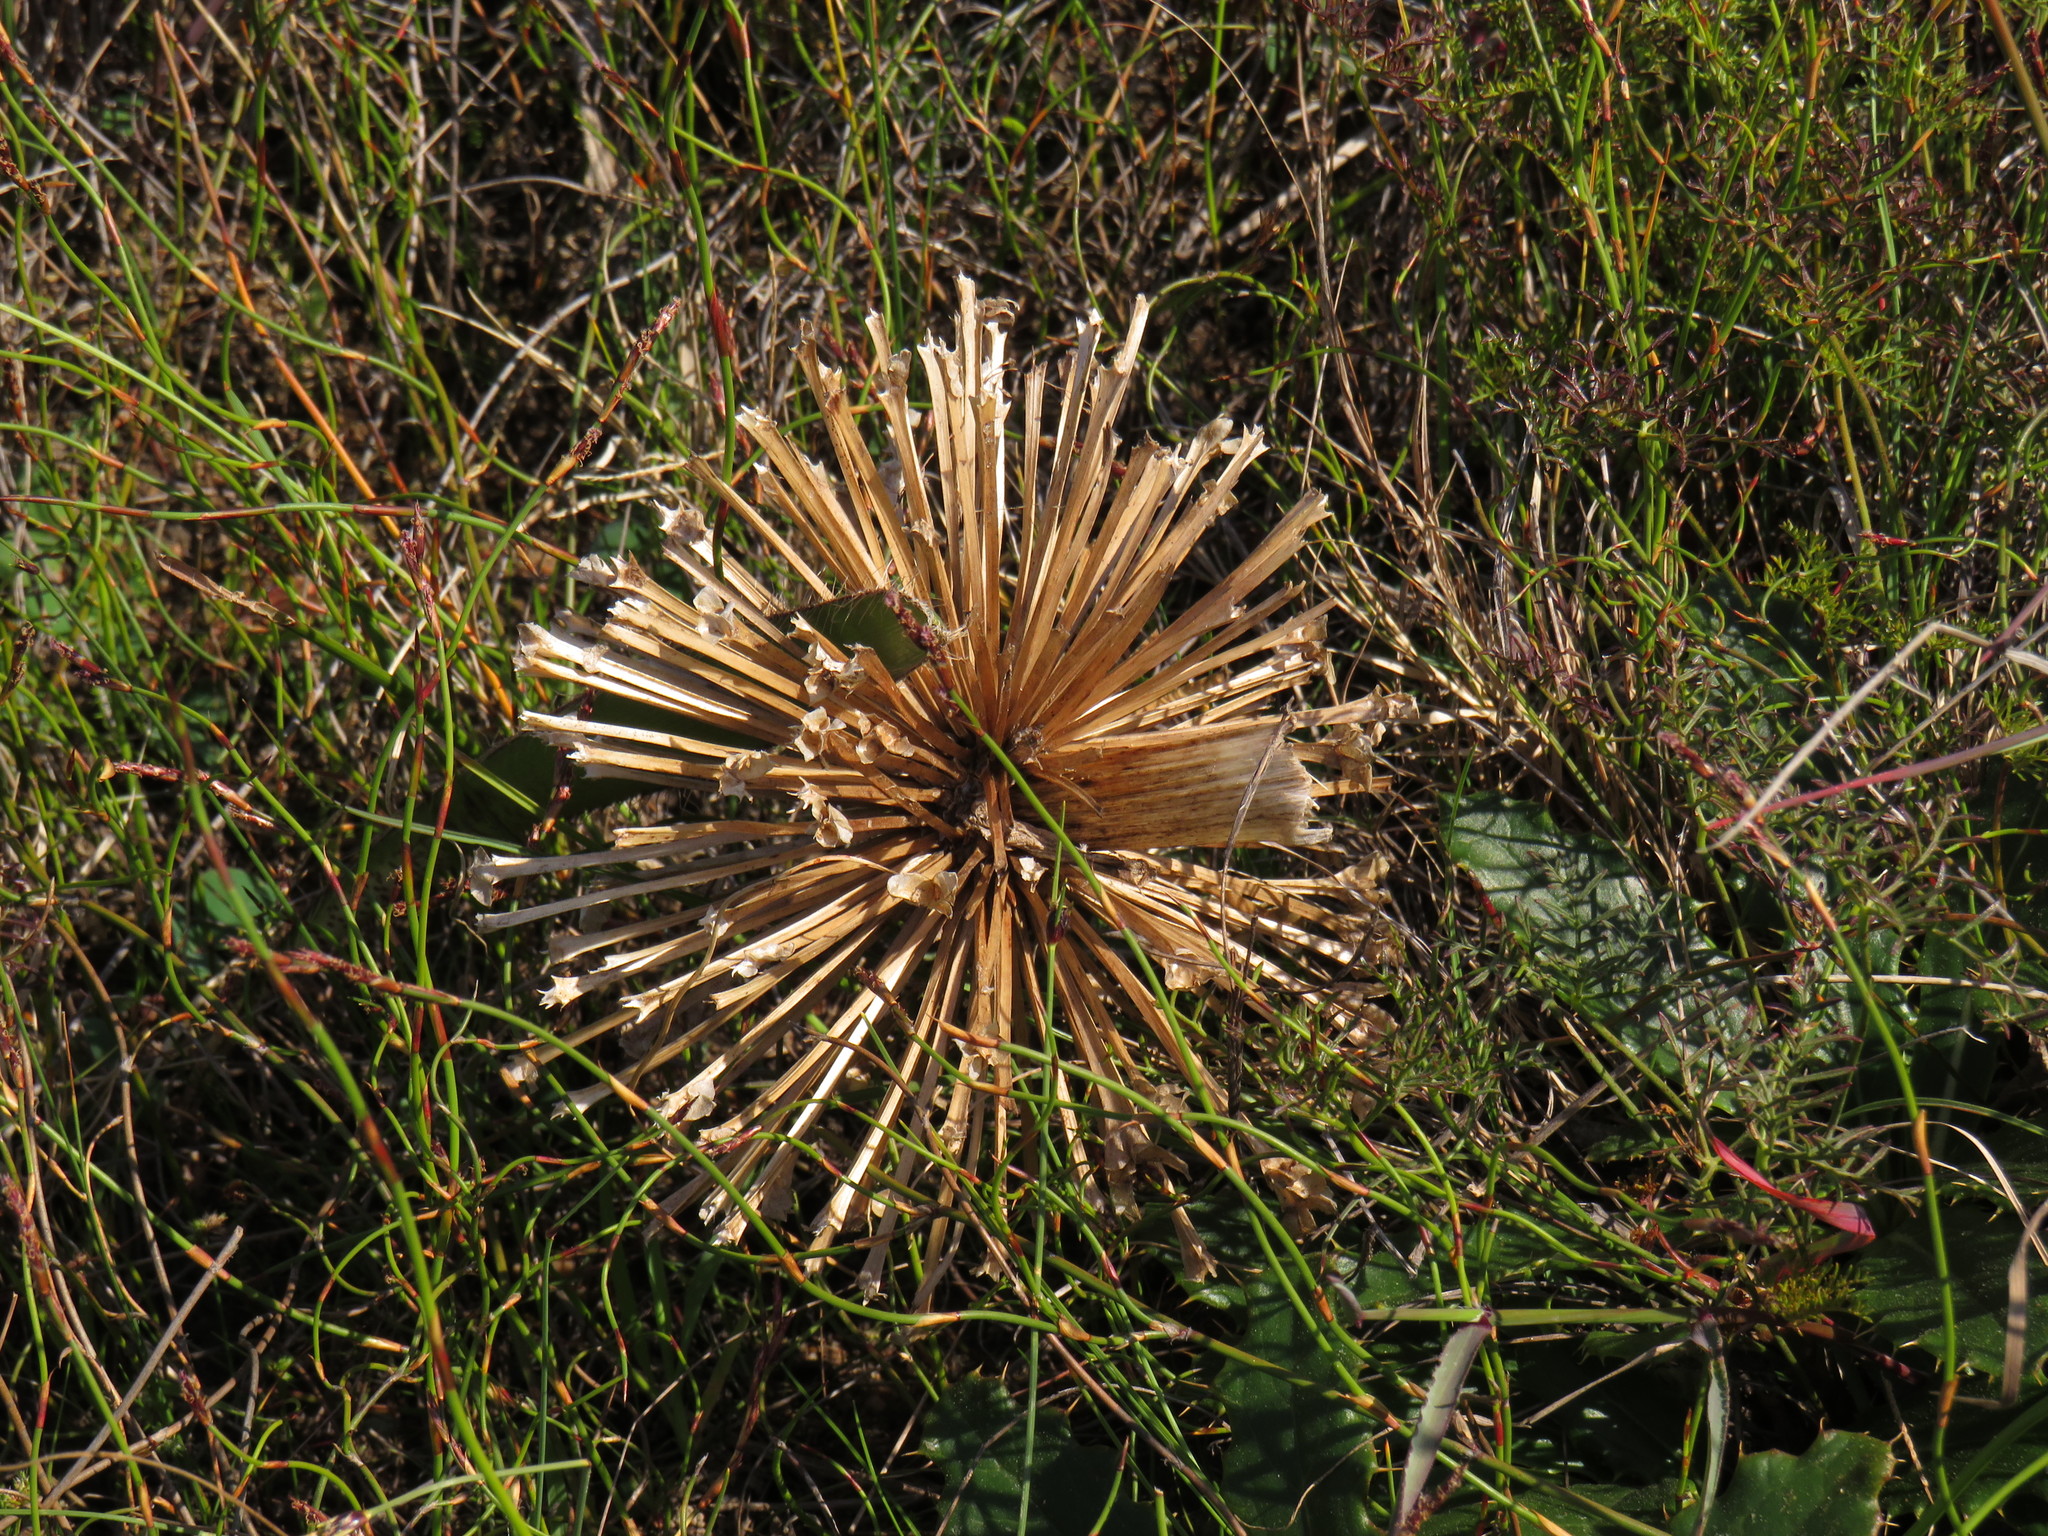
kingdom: Plantae
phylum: Tracheophyta
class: Liliopsida
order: Asparagales
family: Amaryllidaceae
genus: Crossyne
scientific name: Crossyne guttata
